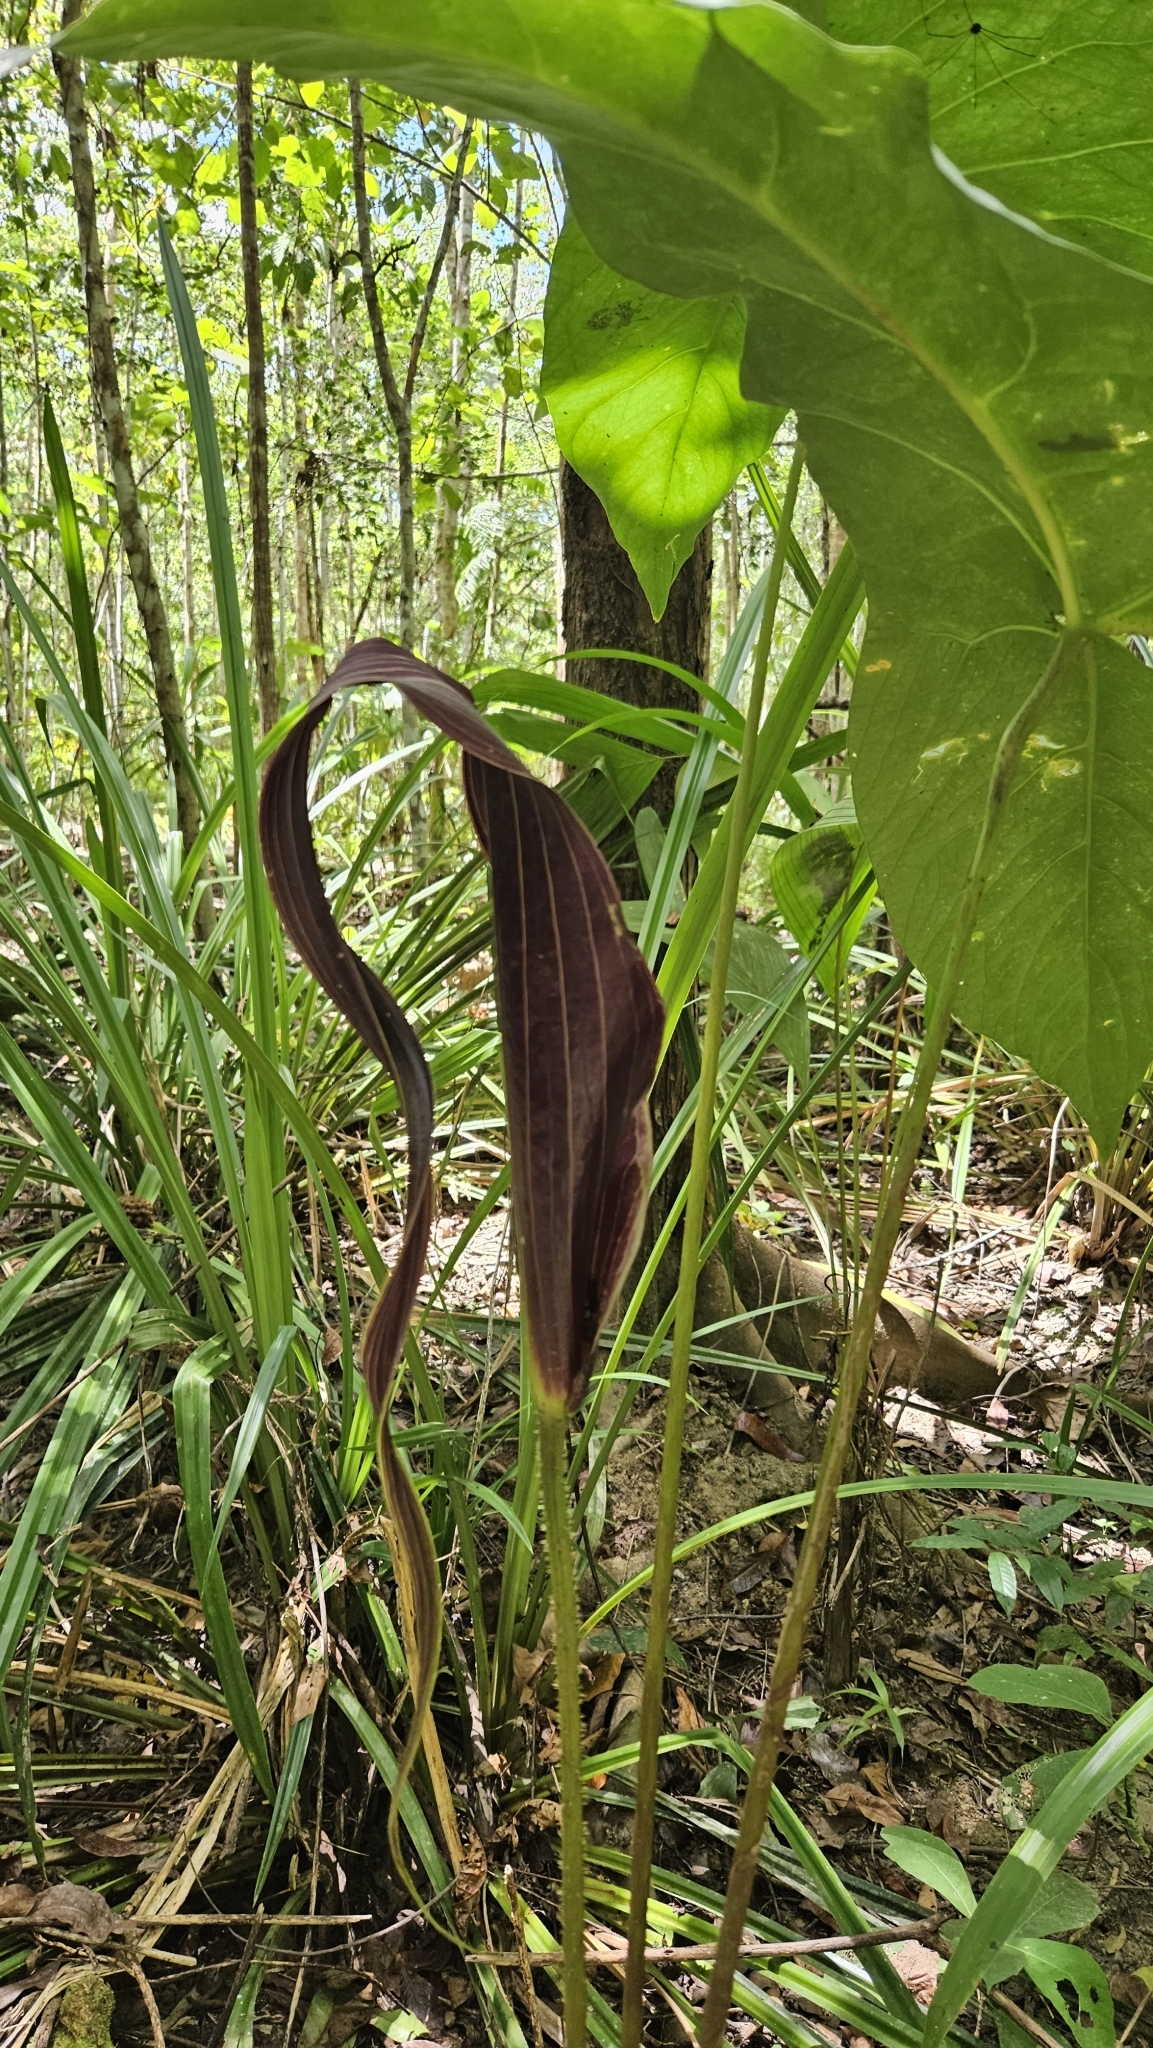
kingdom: Plantae
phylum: Tracheophyta
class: Liliopsida
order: Alismatales
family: Araceae
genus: Cyrtosperma
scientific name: Cyrtosperma cuspidispathum
